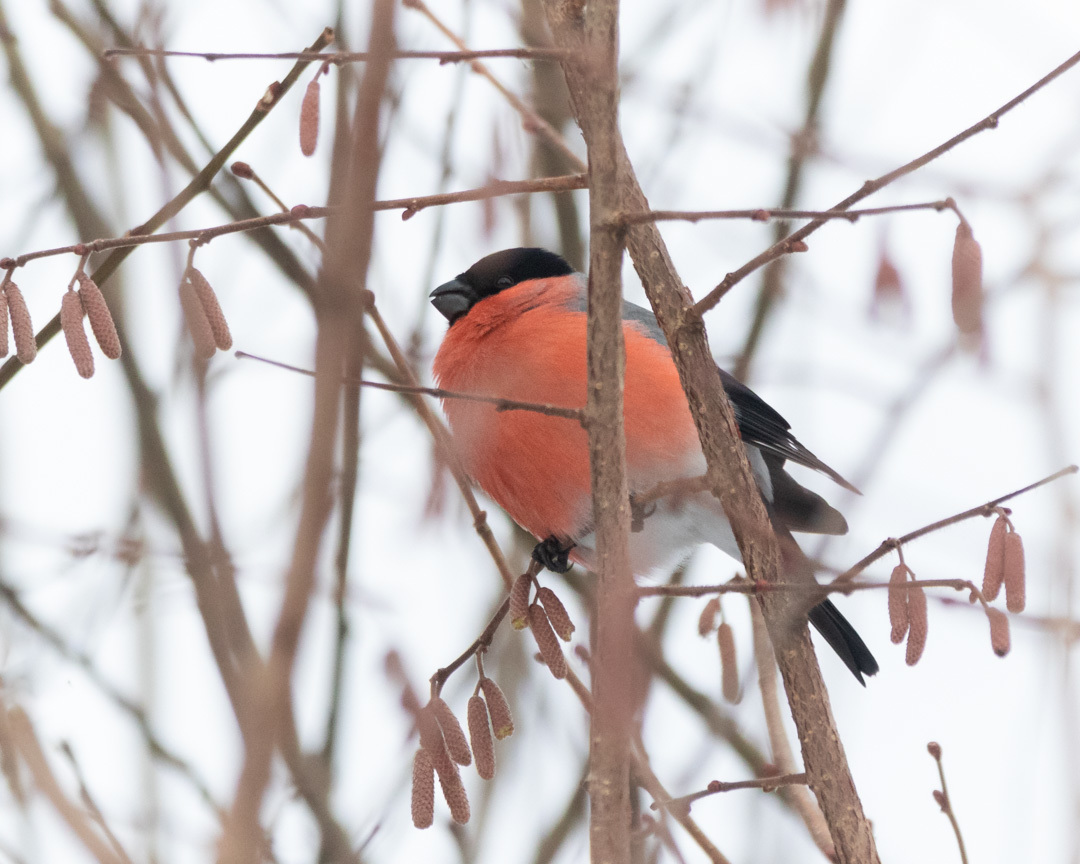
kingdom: Animalia
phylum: Chordata
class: Aves
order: Passeriformes
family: Fringillidae
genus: Pyrrhula
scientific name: Pyrrhula pyrrhula
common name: Eurasian bullfinch
